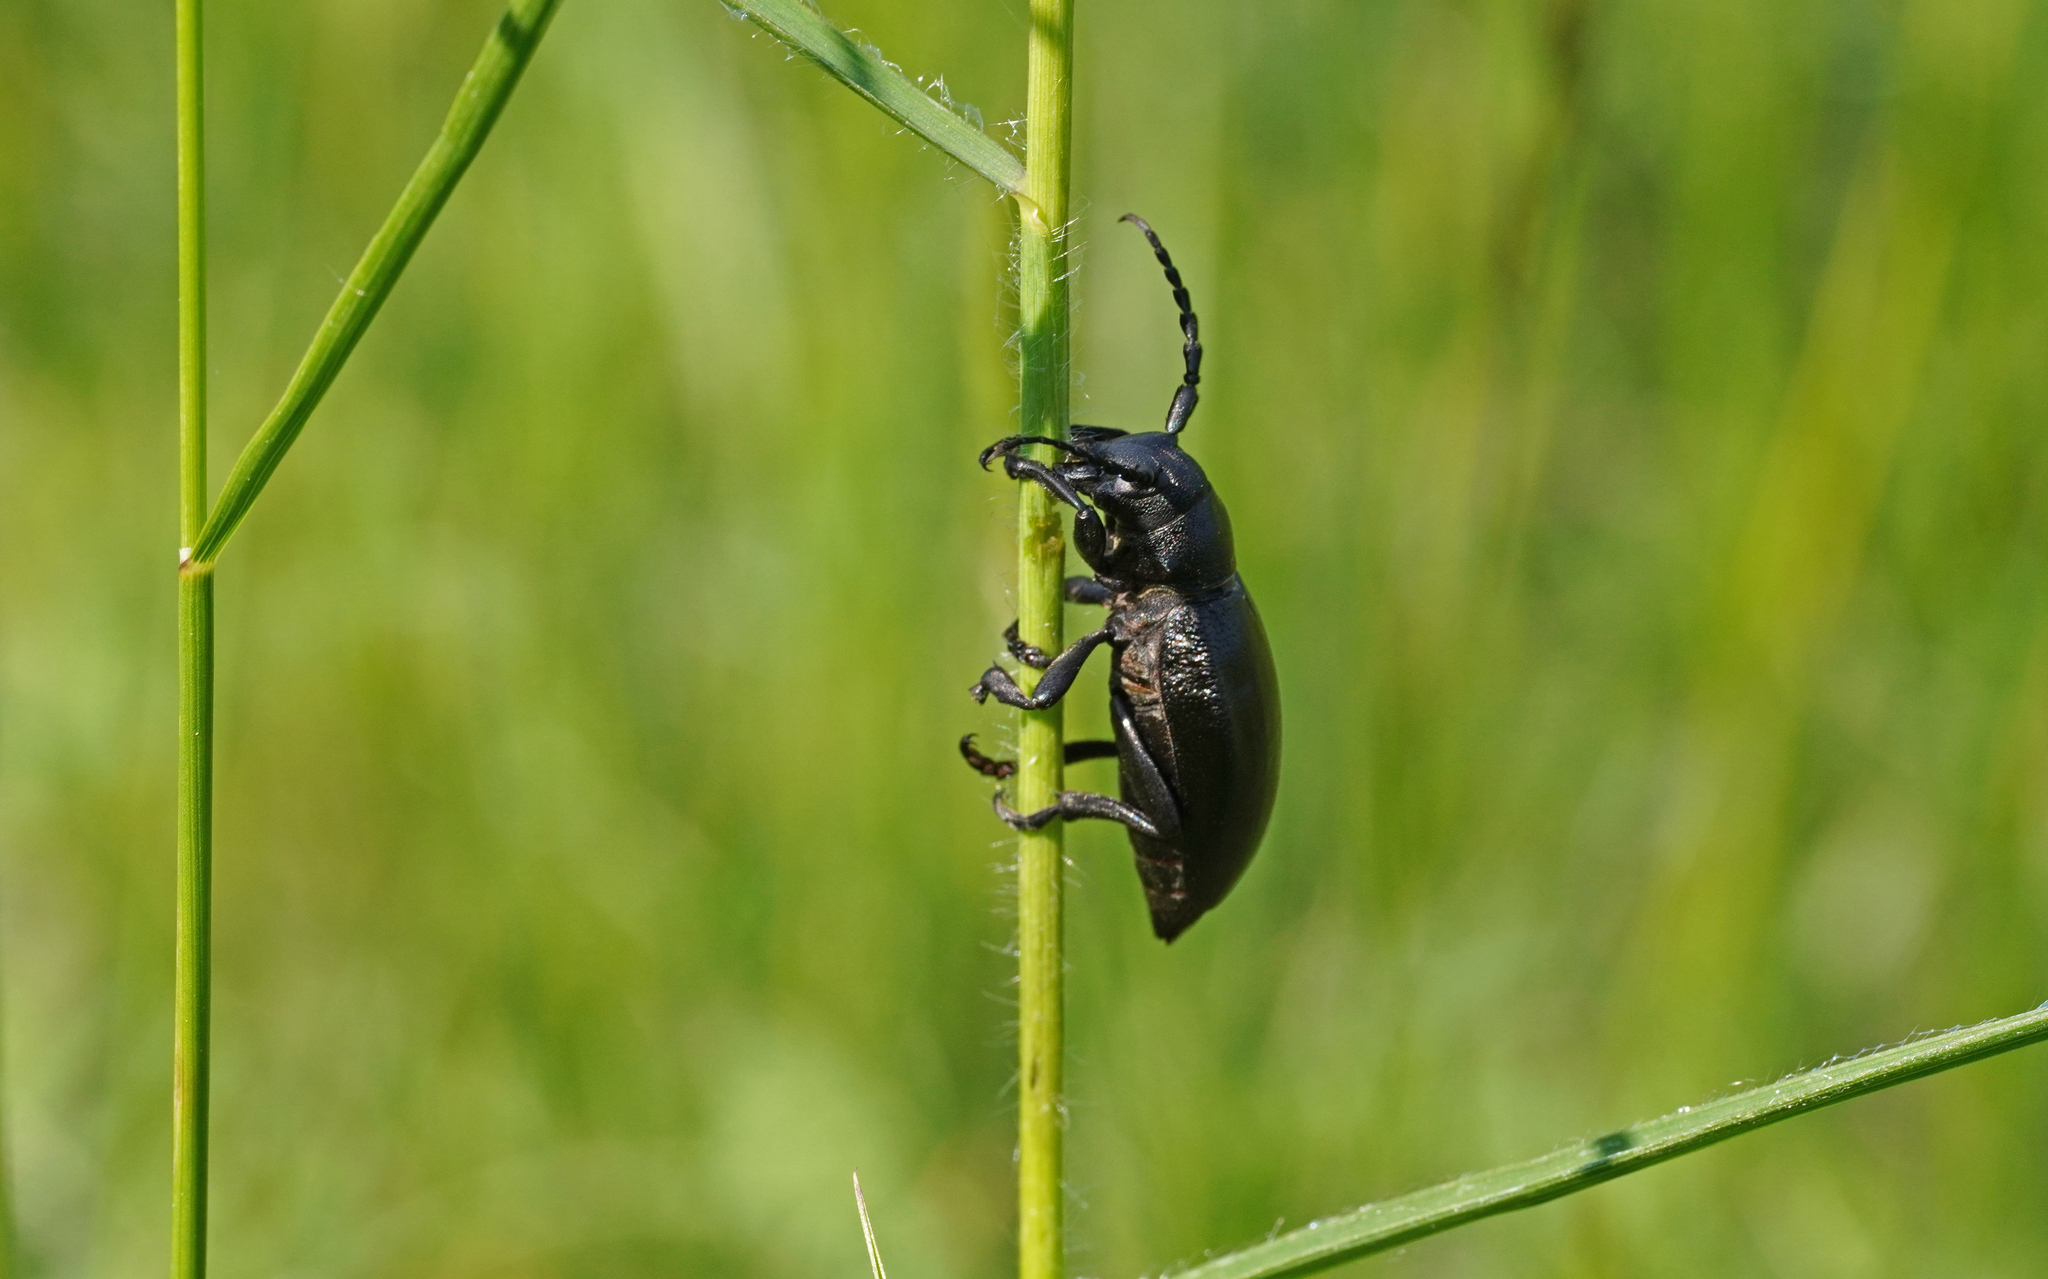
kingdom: Animalia
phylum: Arthropoda
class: Insecta
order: Coleoptera
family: Cerambycidae
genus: Dorcadion
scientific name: Dorcadion aethiops
